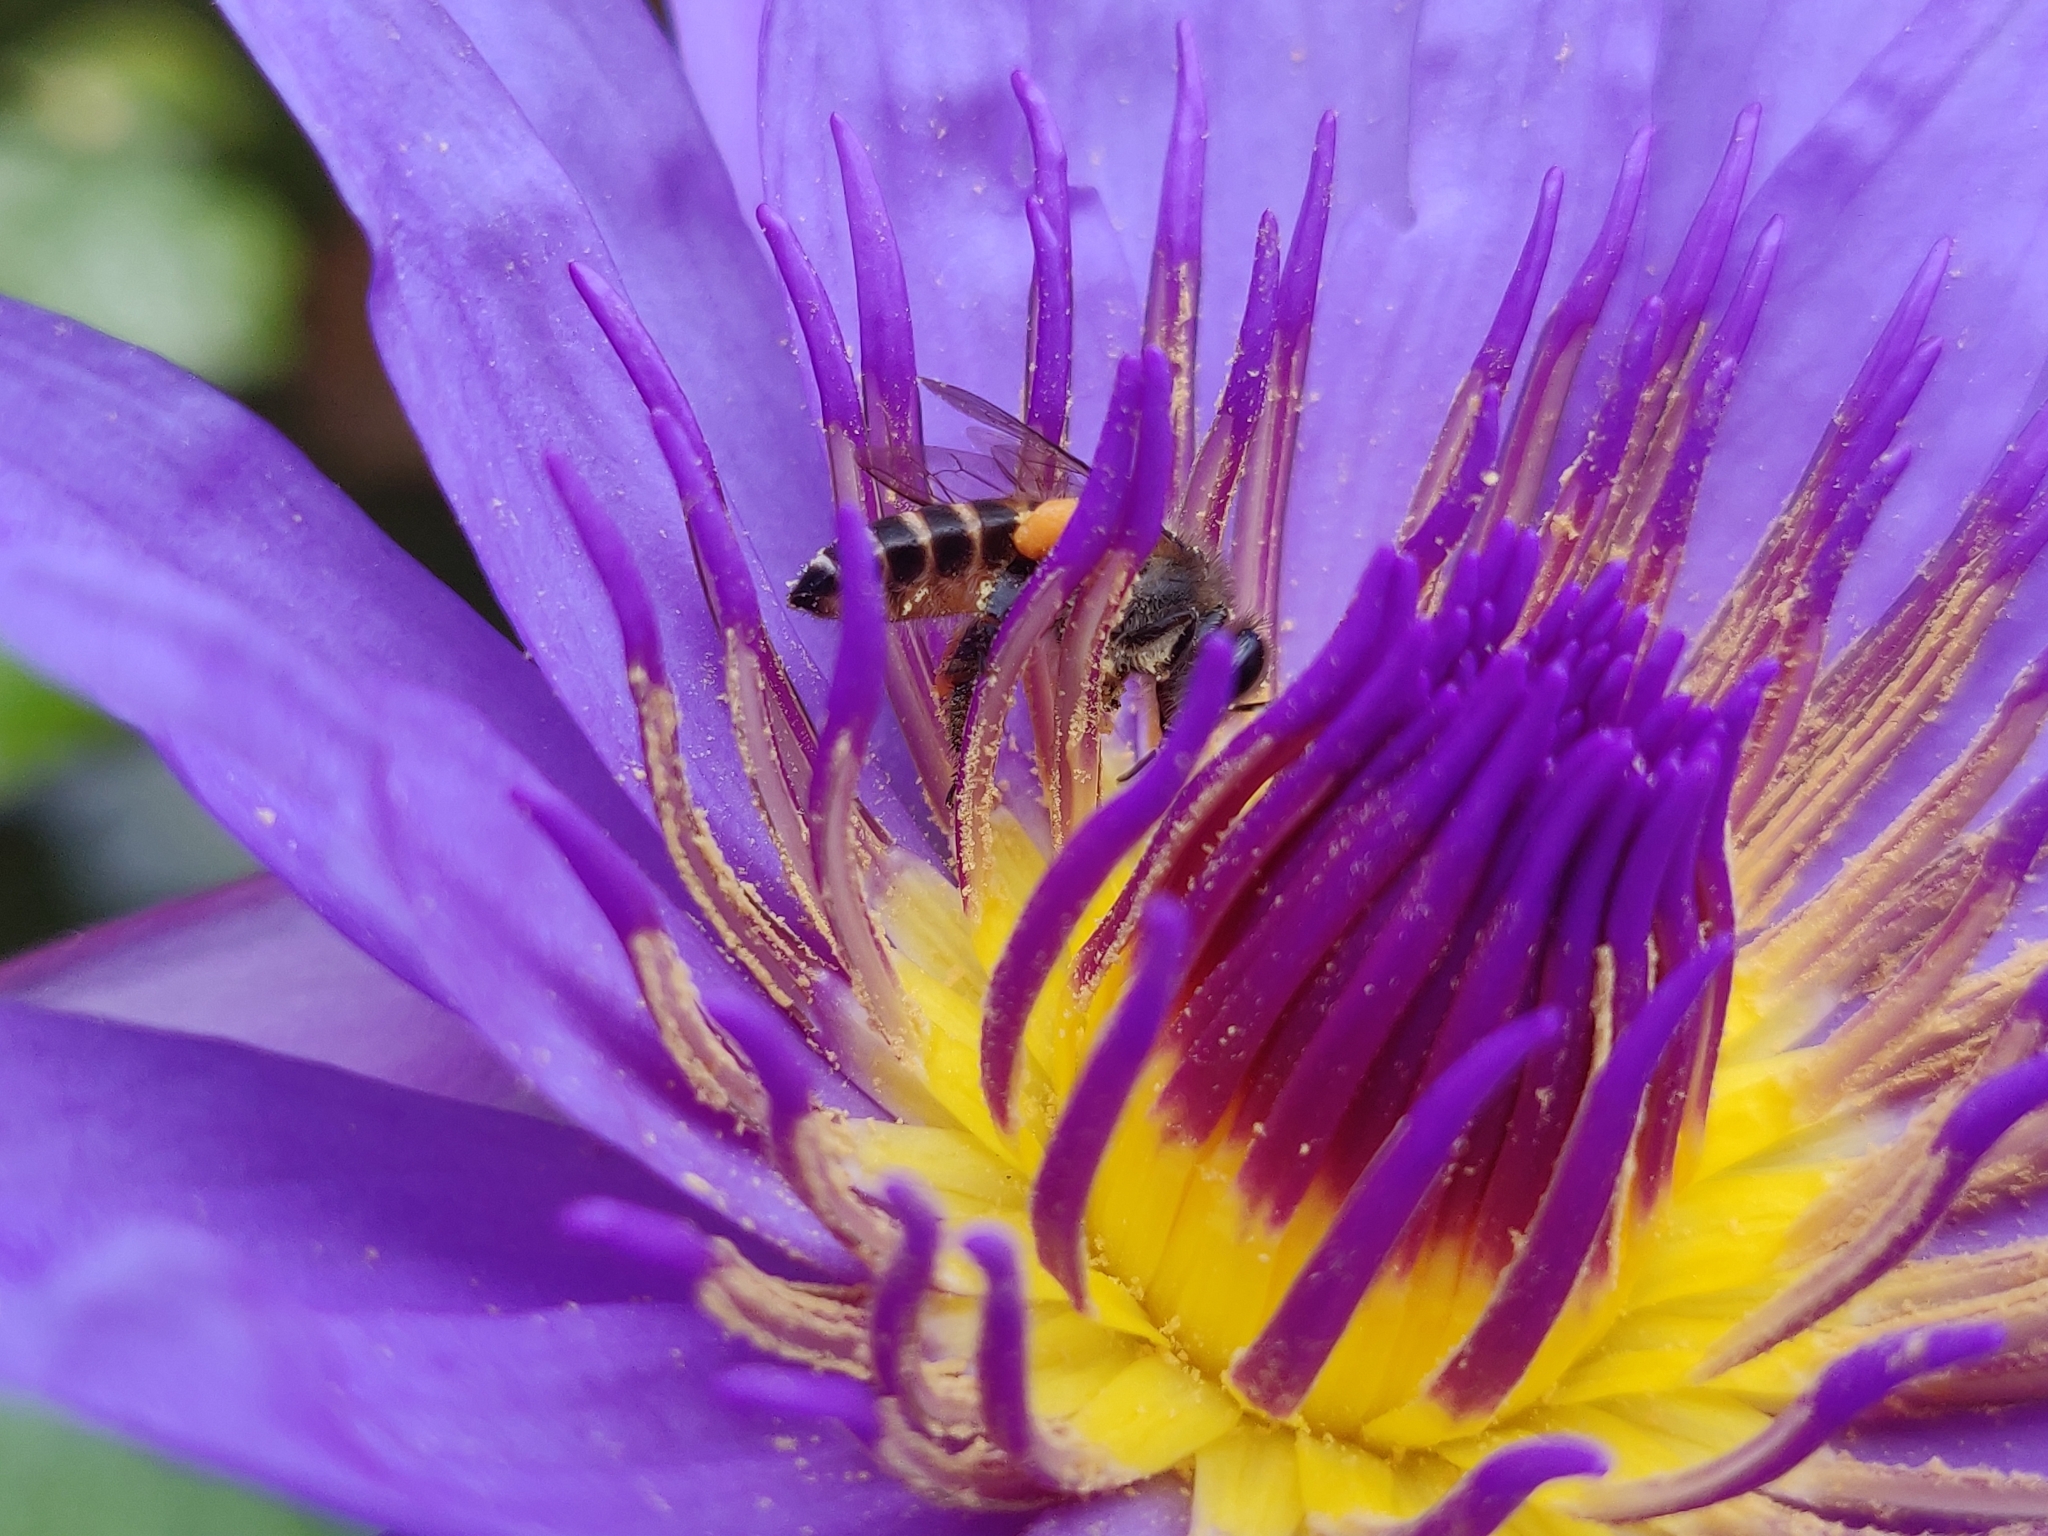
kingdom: Animalia
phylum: Arthropoda
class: Insecta
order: Hymenoptera
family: Apidae
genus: Apis
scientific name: Apis cerana
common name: Honey bee
